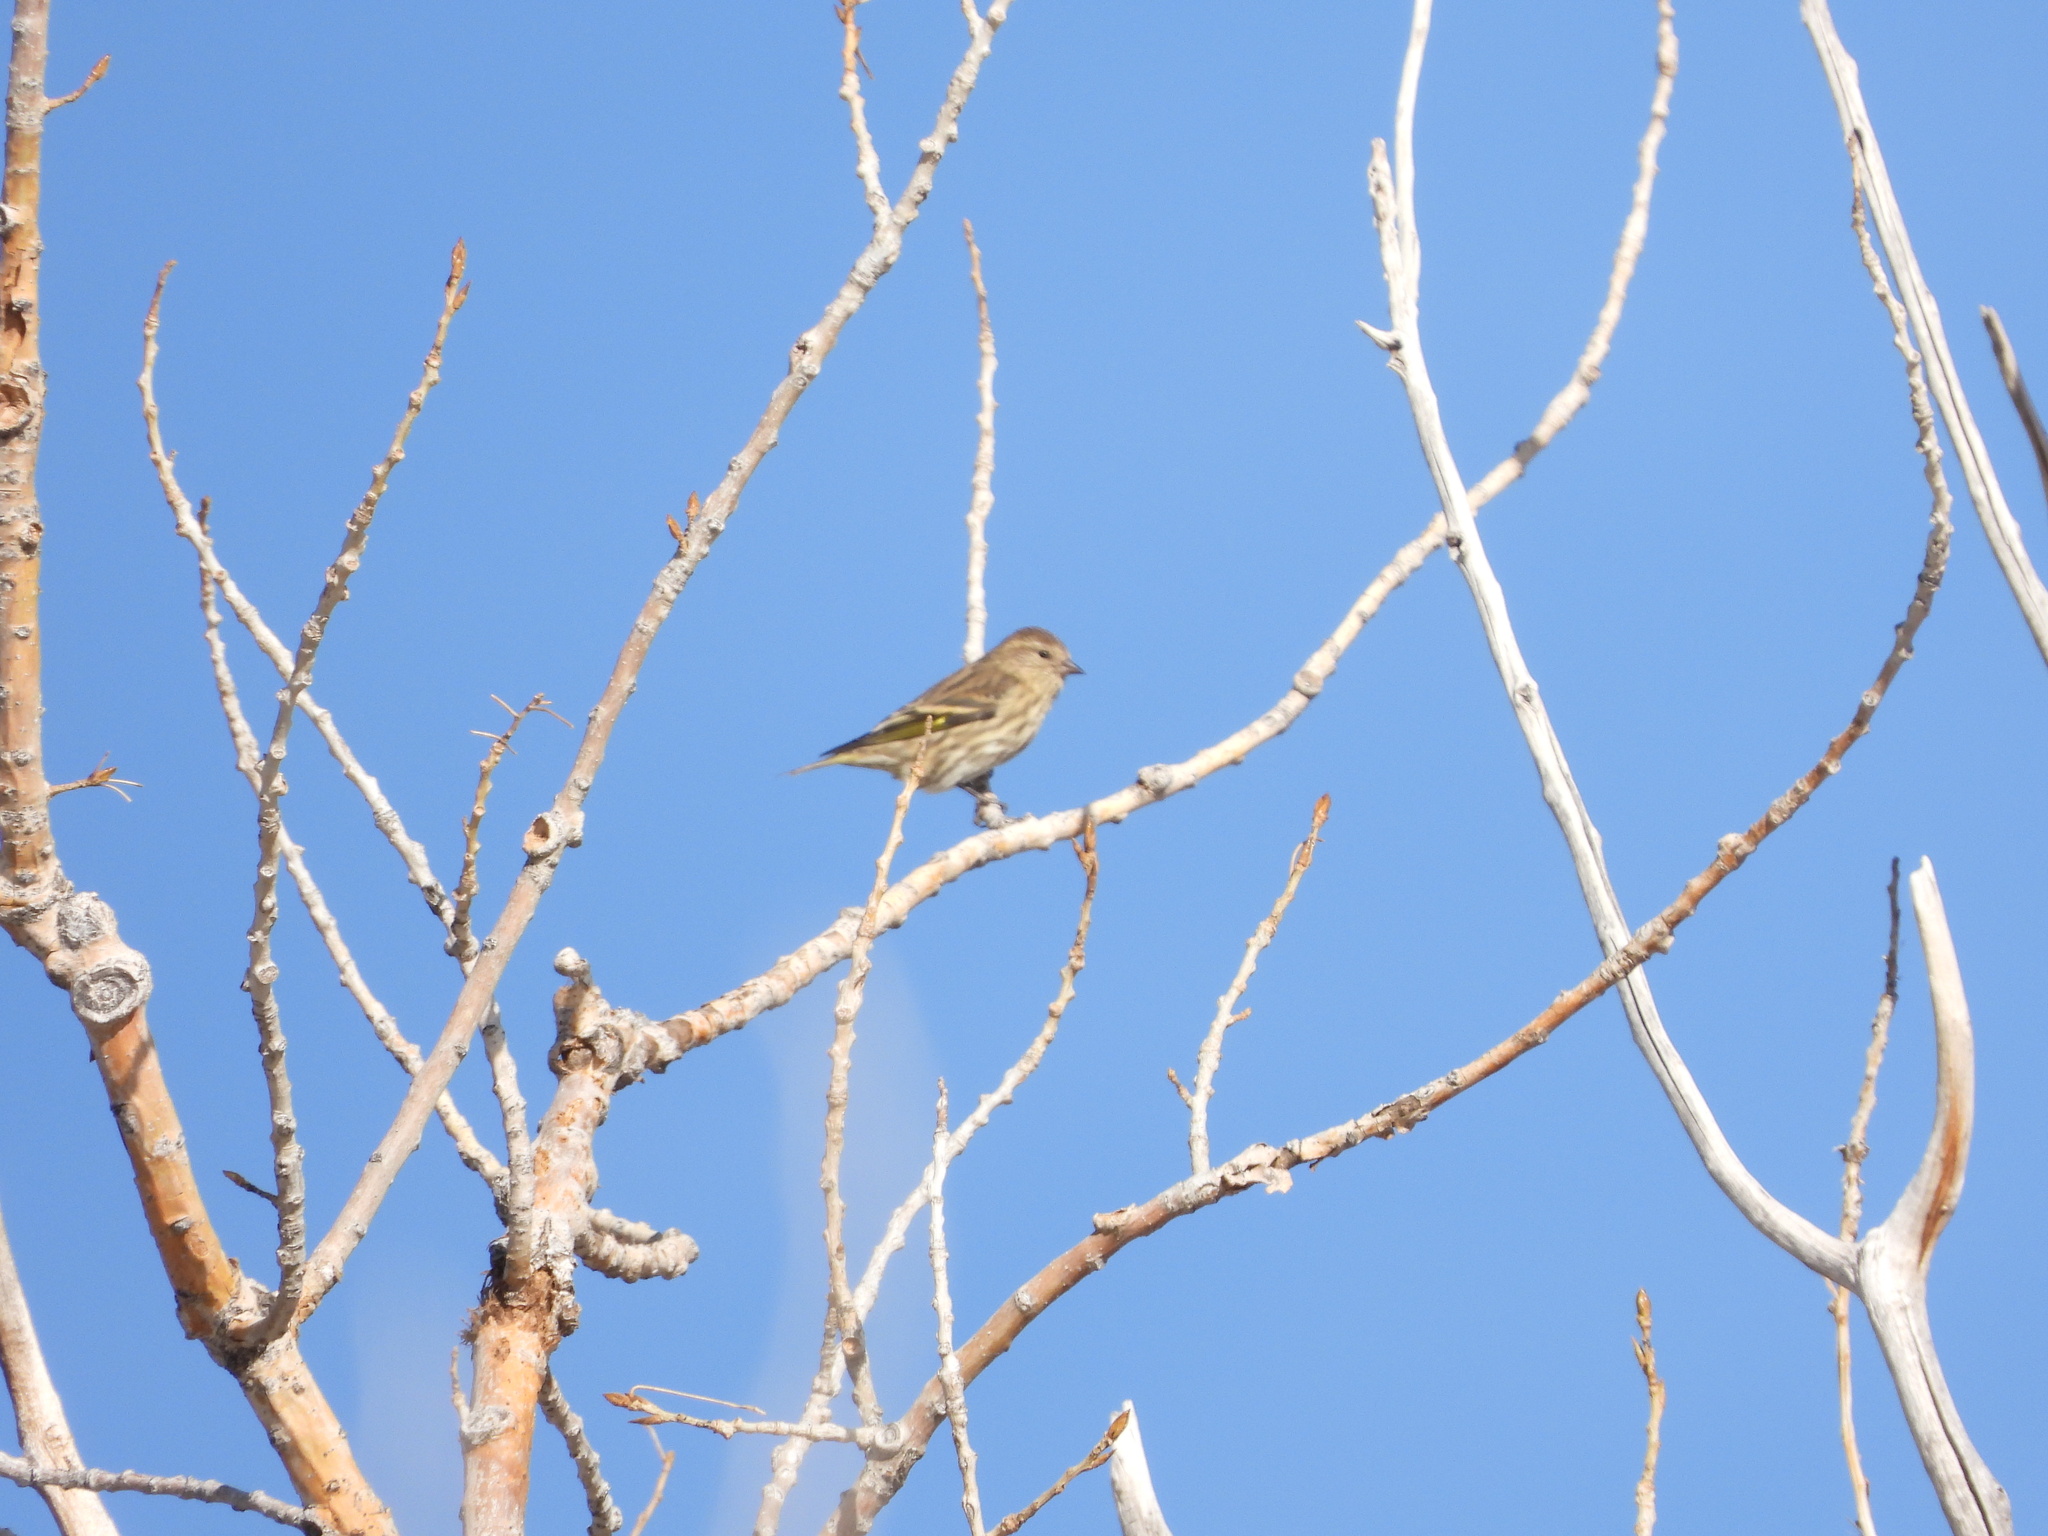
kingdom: Animalia
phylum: Chordata
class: Aves
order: Passeriformes
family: Fringillidae
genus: Spinus
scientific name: Spinus pinus
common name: Pine siskin
